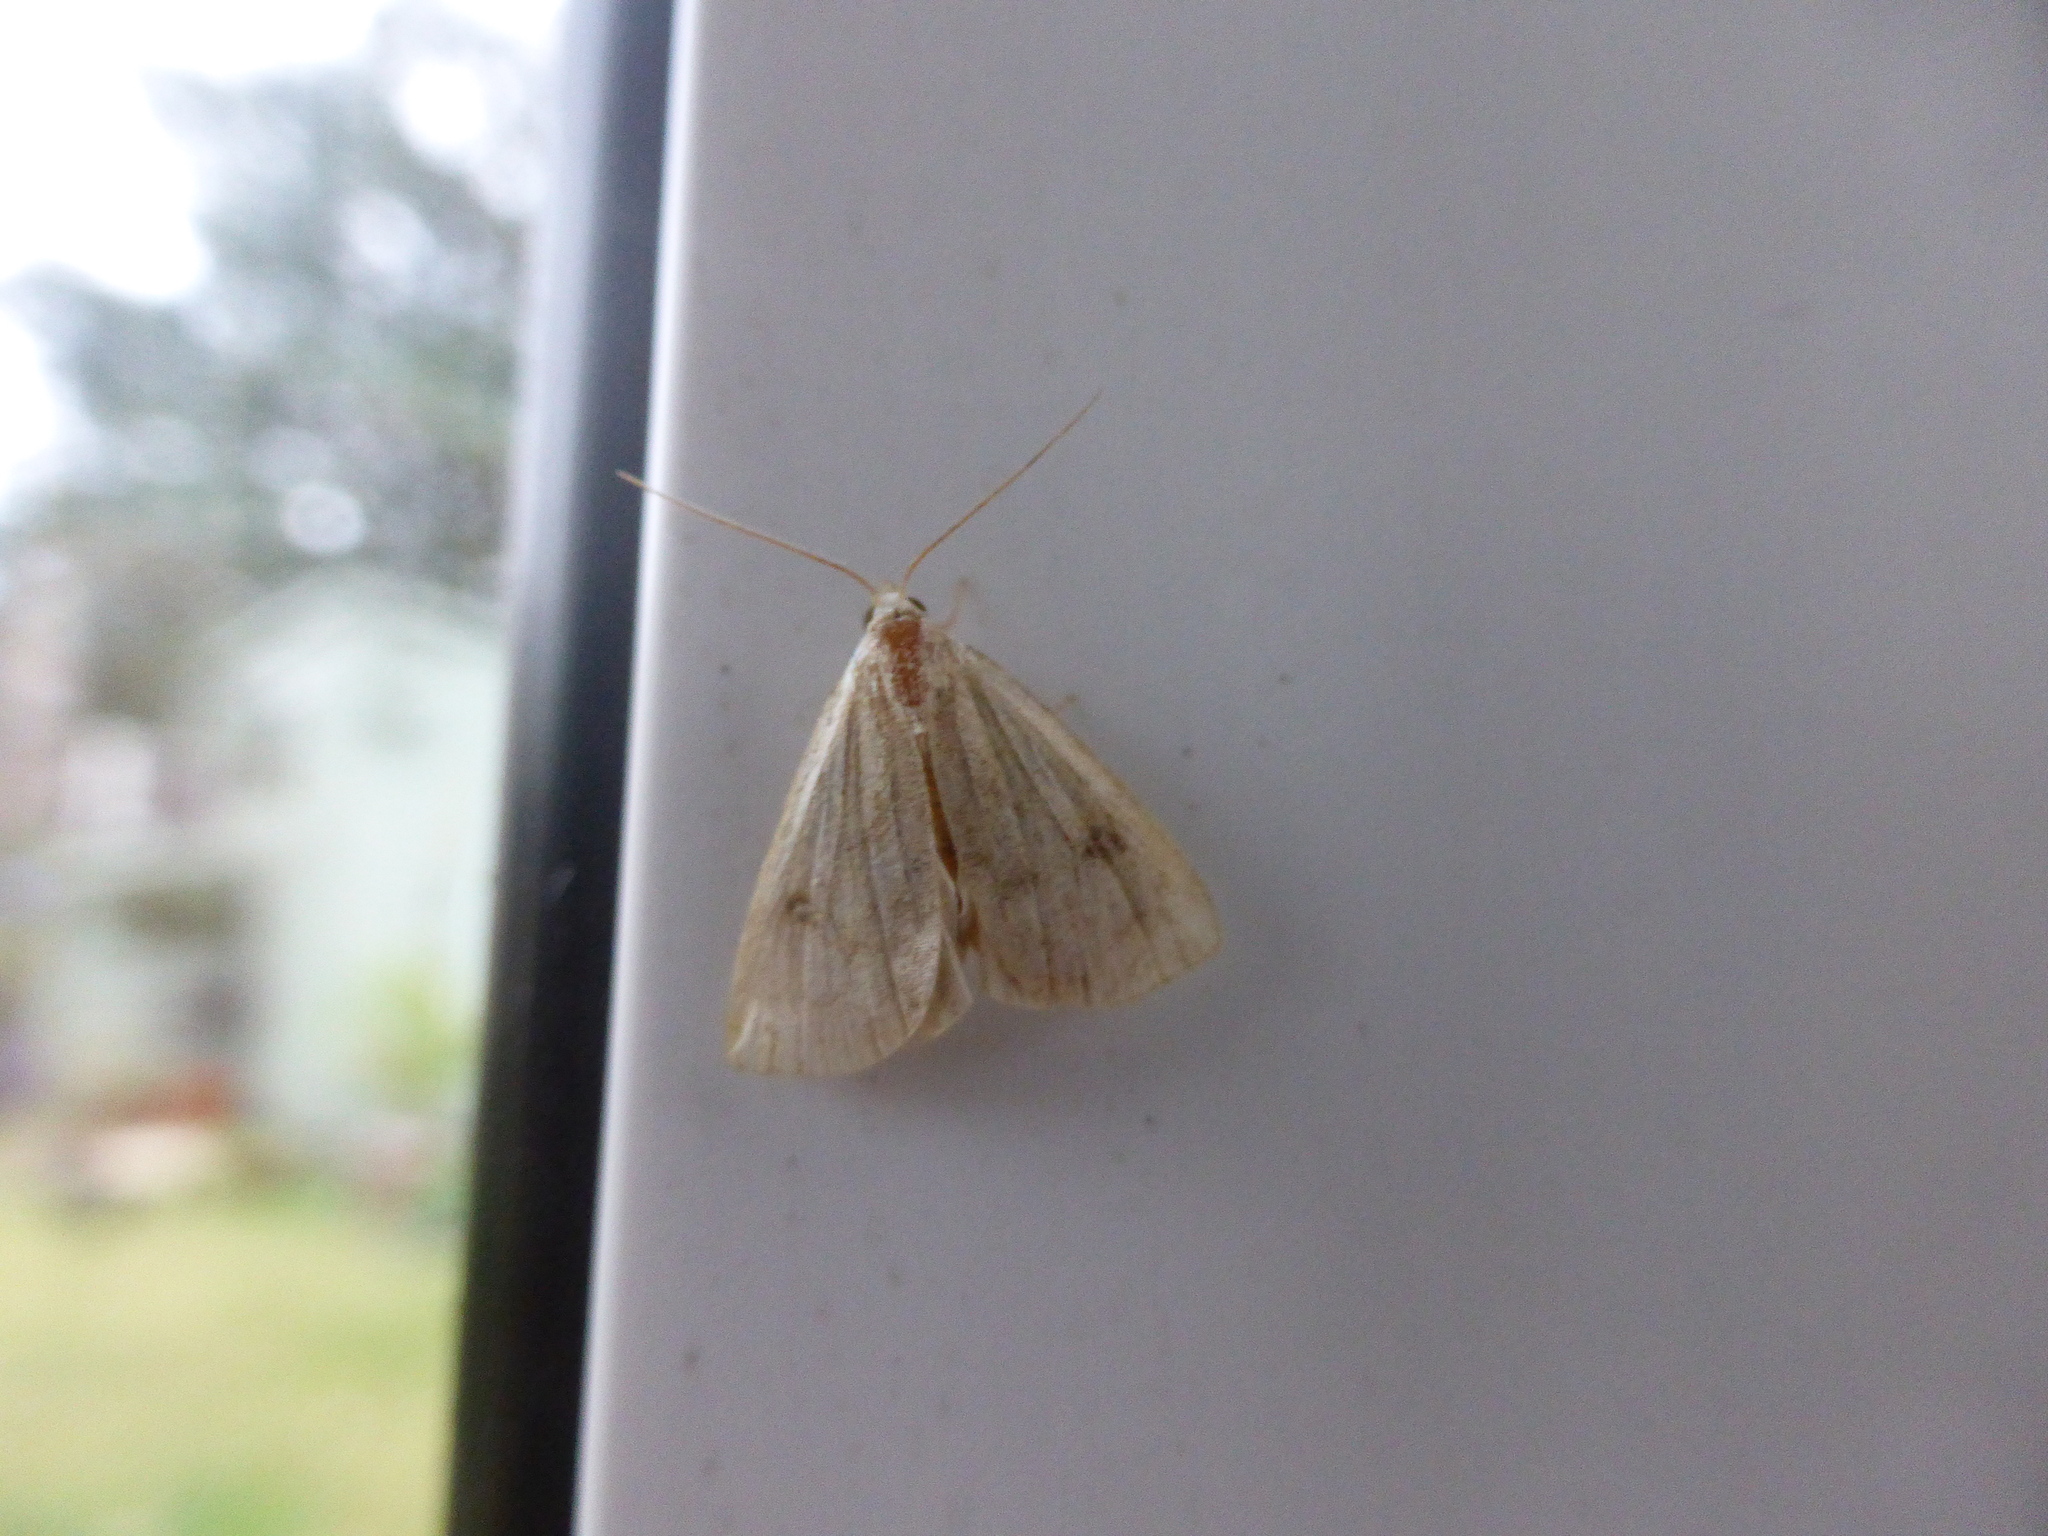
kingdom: Animalia
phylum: Arthropoda
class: Insecta
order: Lepidoptera
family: Erebidae
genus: Rivula
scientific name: Rivula sericealis
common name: Straw dot
